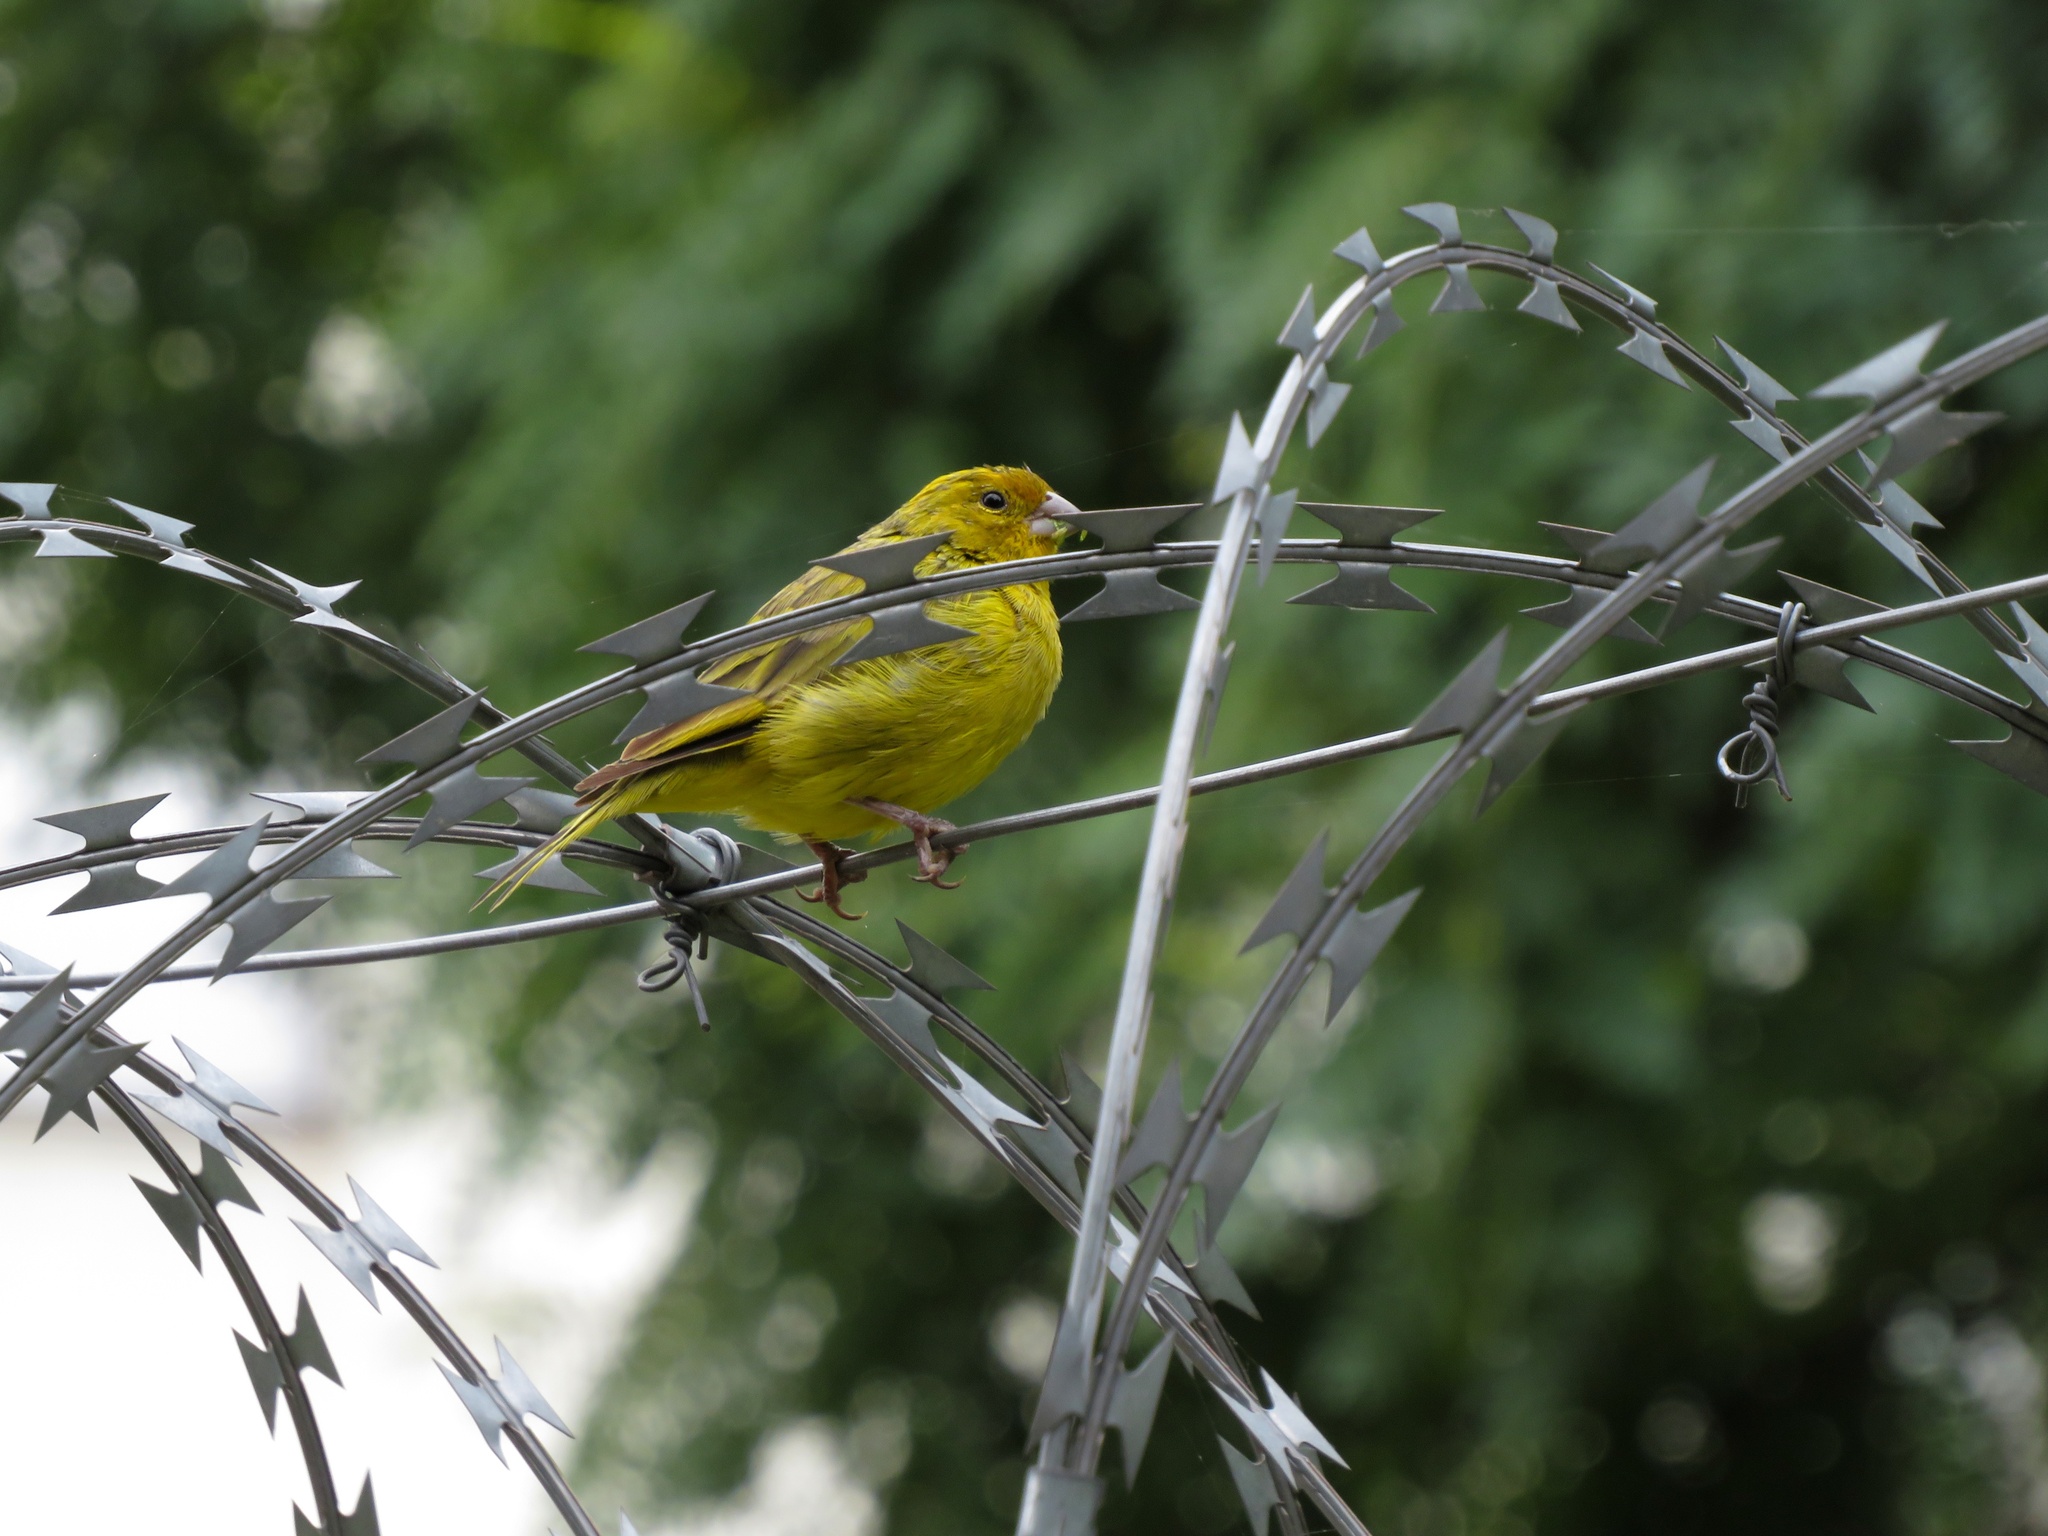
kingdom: Animalia
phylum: Chordata
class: Aves
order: Passeriformes
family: Thraupidae
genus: Sicalis
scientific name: Sicalis flaveola
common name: Saffron finch
